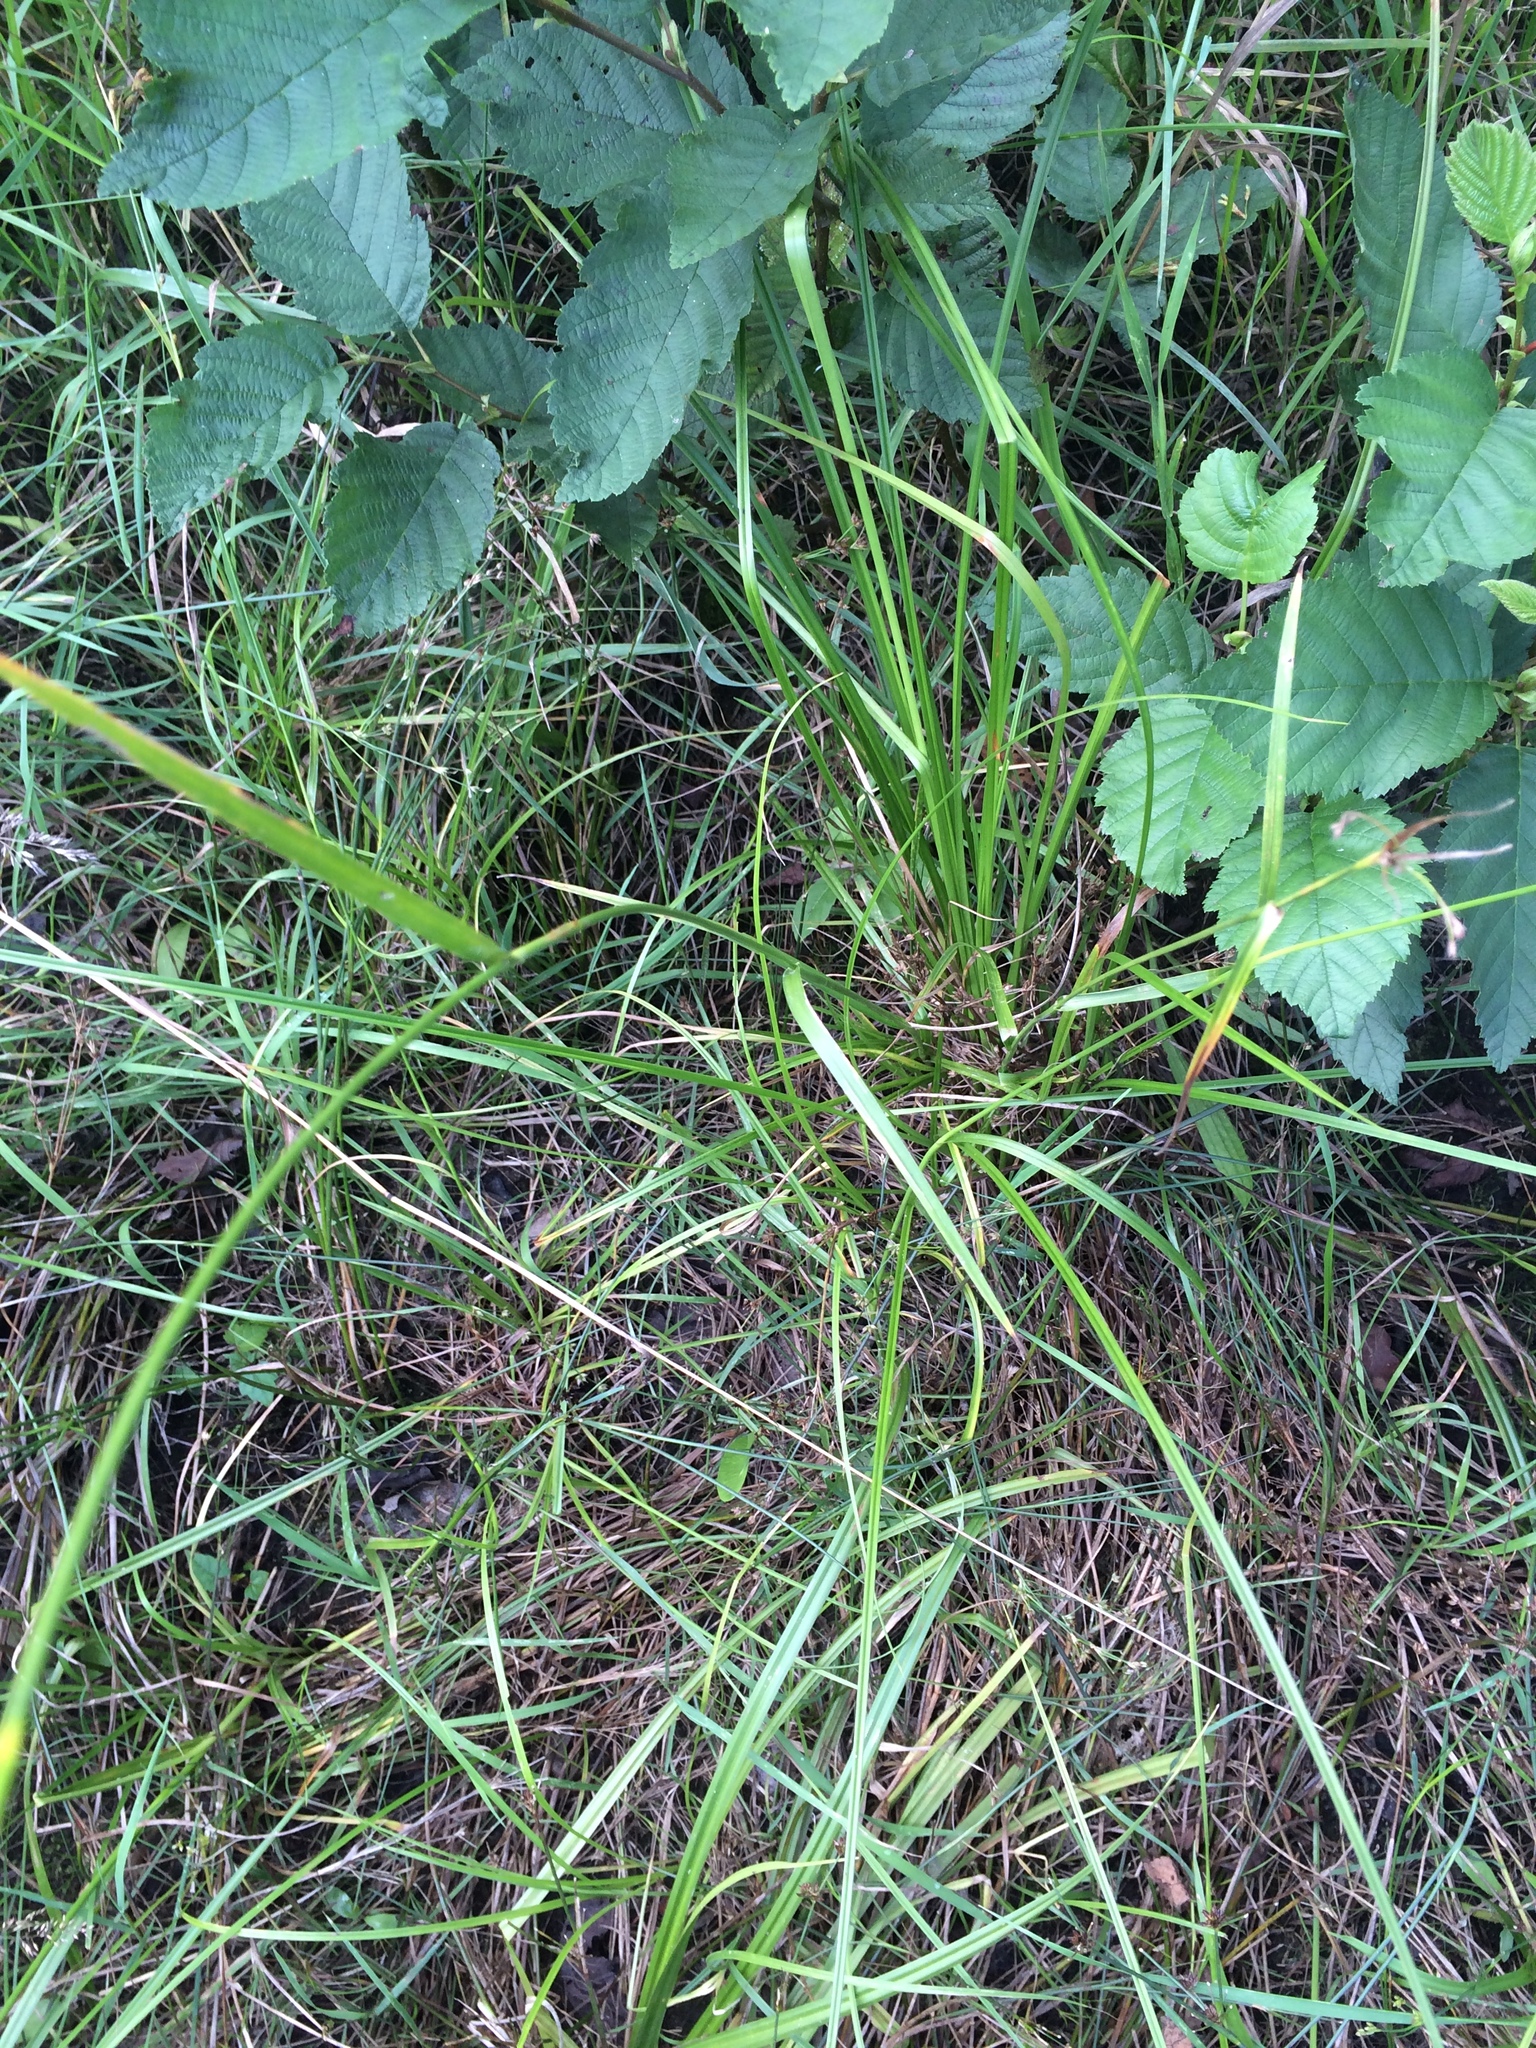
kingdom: Plantae
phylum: Tracheophyta
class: Liliopsida
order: Poales
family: Cyperaceae
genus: Scirpus
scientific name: Scirpus pendulus
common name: Nodding bulrush
